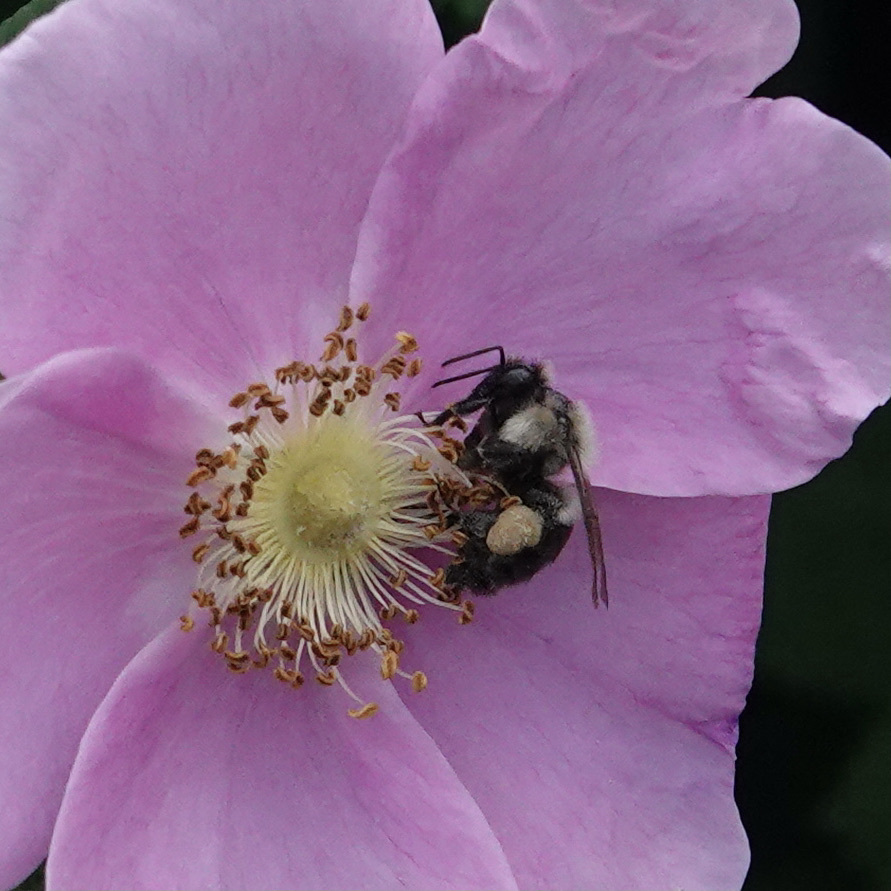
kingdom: Animalia
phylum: Arthropoda
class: Insecta
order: Hymenoptera
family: Apidae
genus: Bombus
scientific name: Bombus impatiens
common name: Common eastern bumble bee
